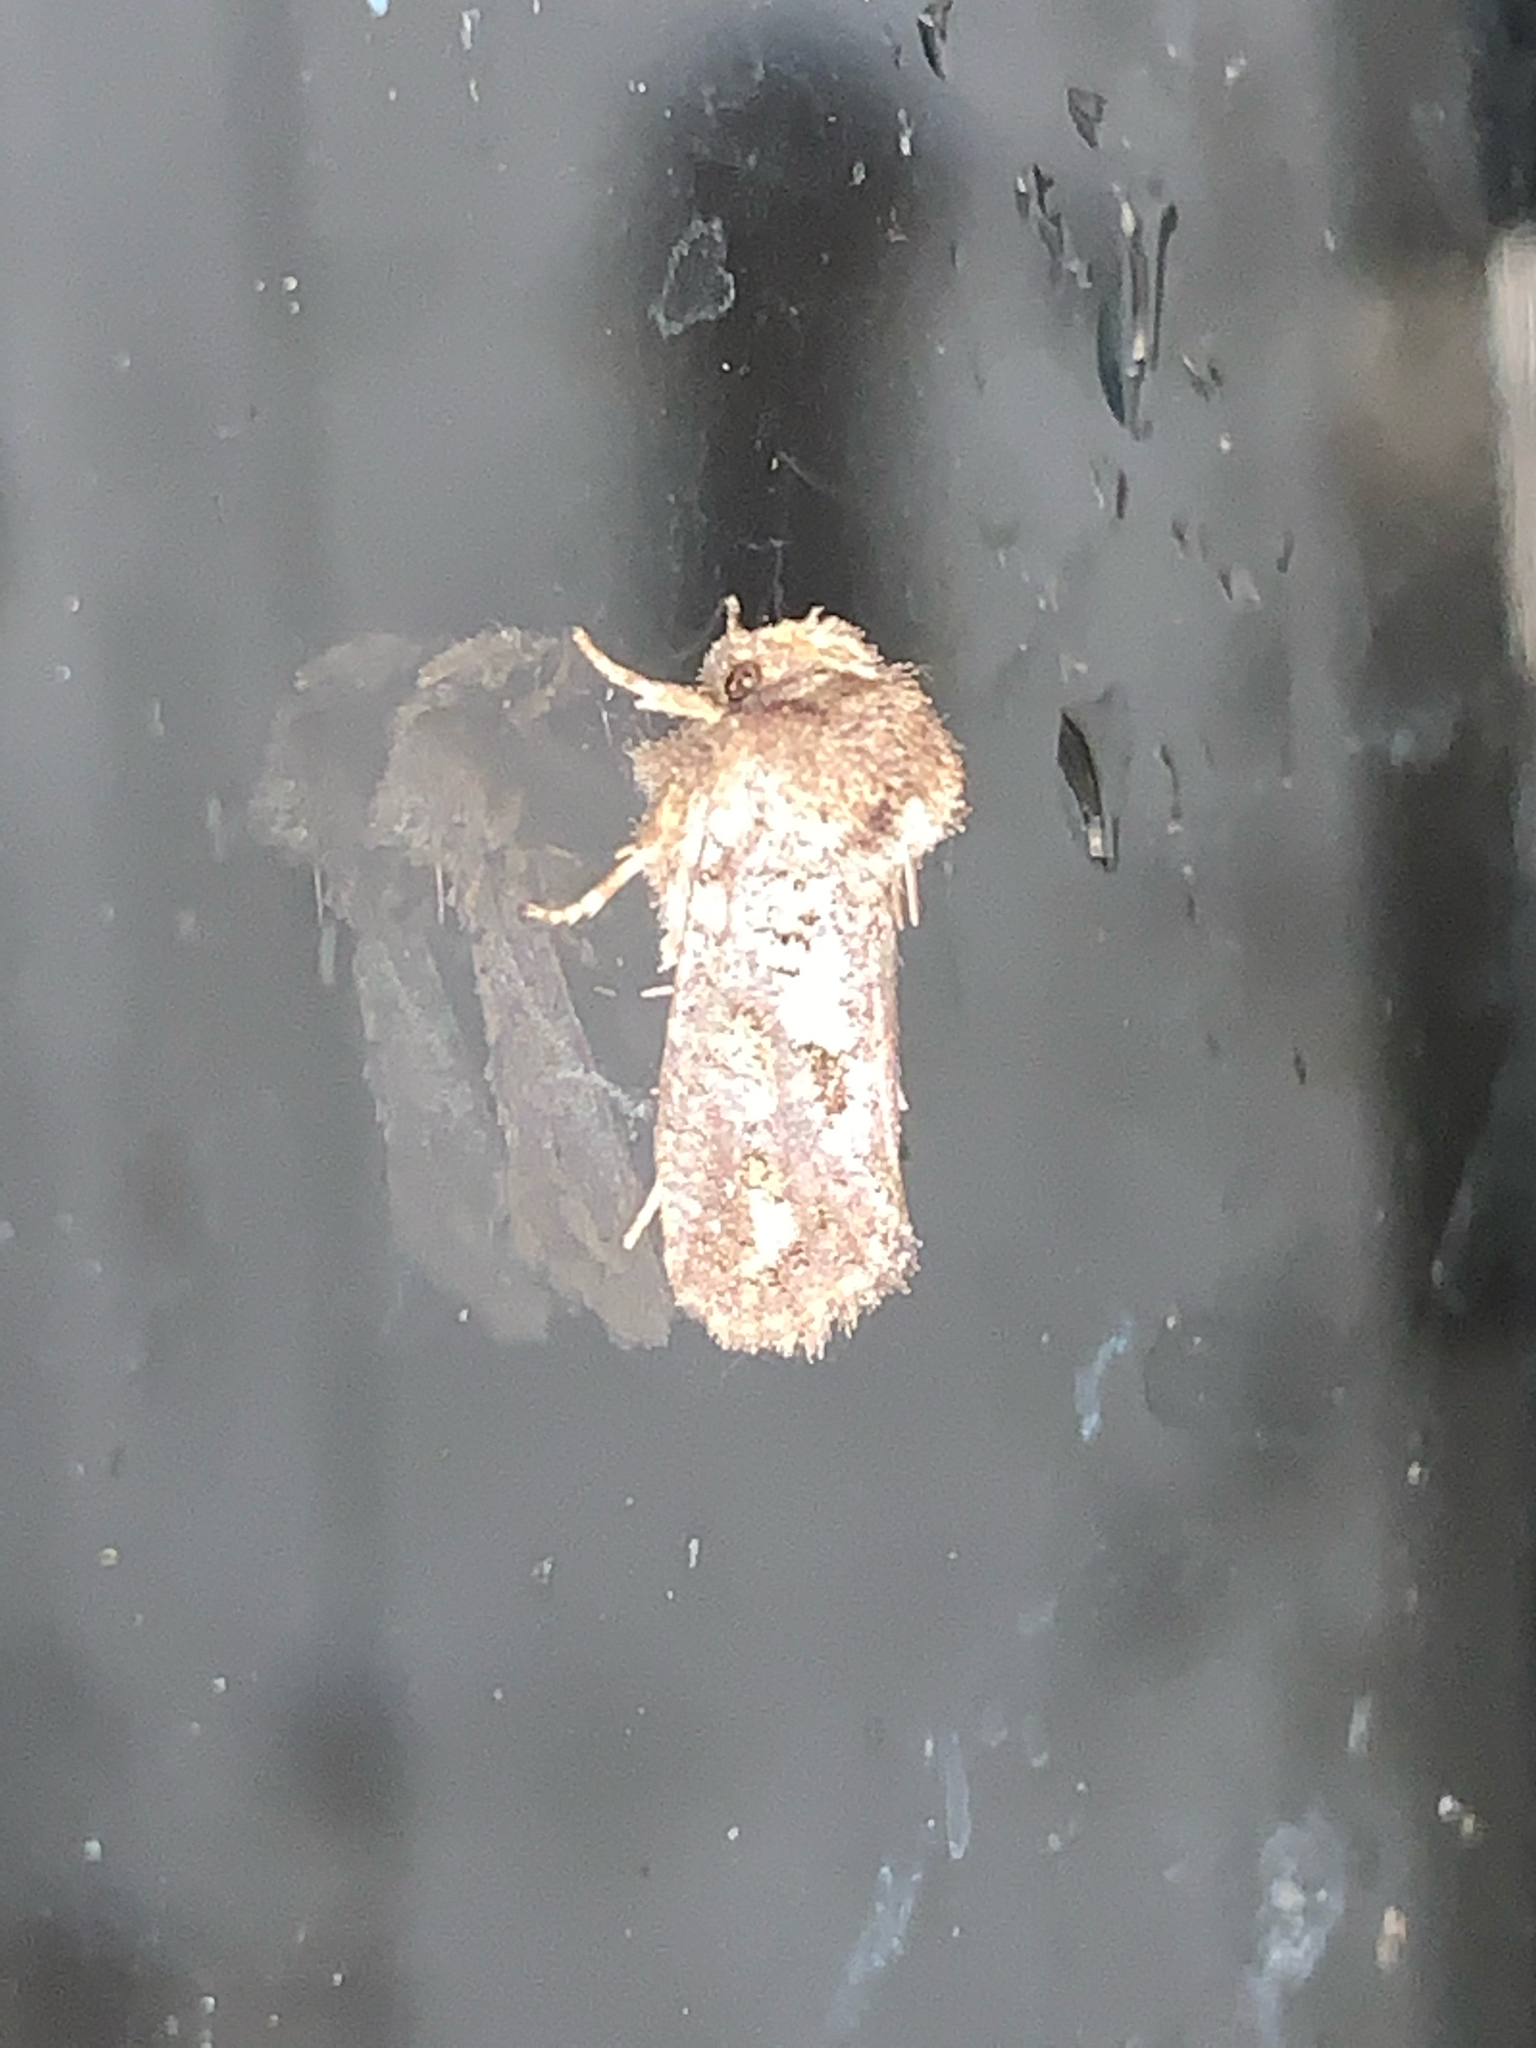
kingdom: Animalia
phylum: Arthropoda
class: Insecta
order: Lepidoptera
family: Tineidae
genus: Acrolophus
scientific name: Acrolophus arcanella
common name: Arcane grass tubeworm moth
